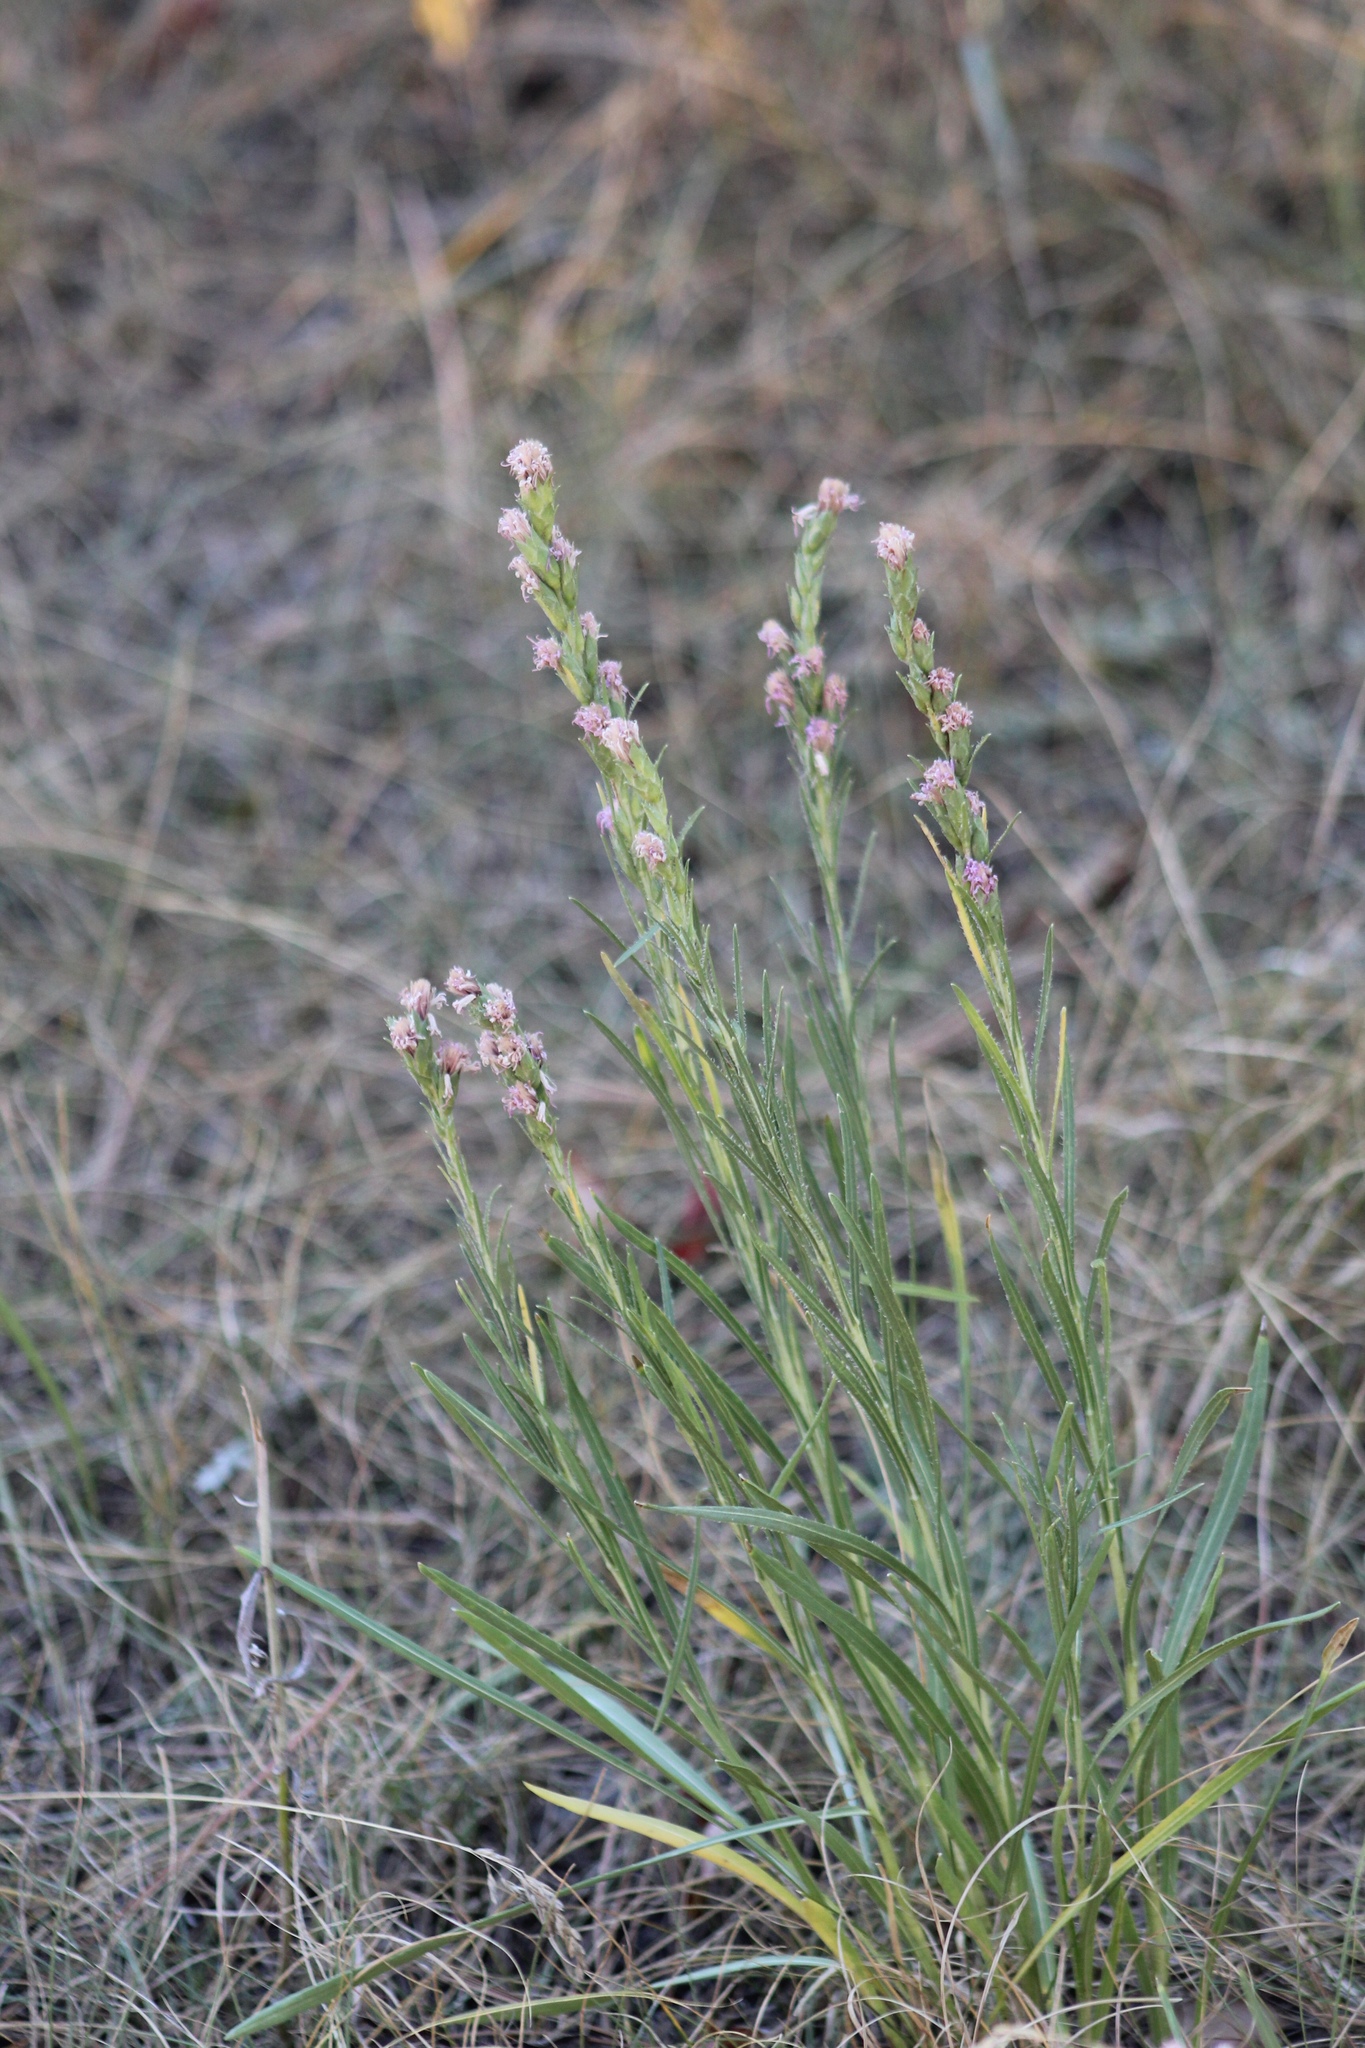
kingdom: Plantae
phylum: Tracheophyta
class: Magnoliopsida
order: Asterales
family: Asteraceae
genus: Liatris
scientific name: Liatris punctata
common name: Dotted gayfeather
